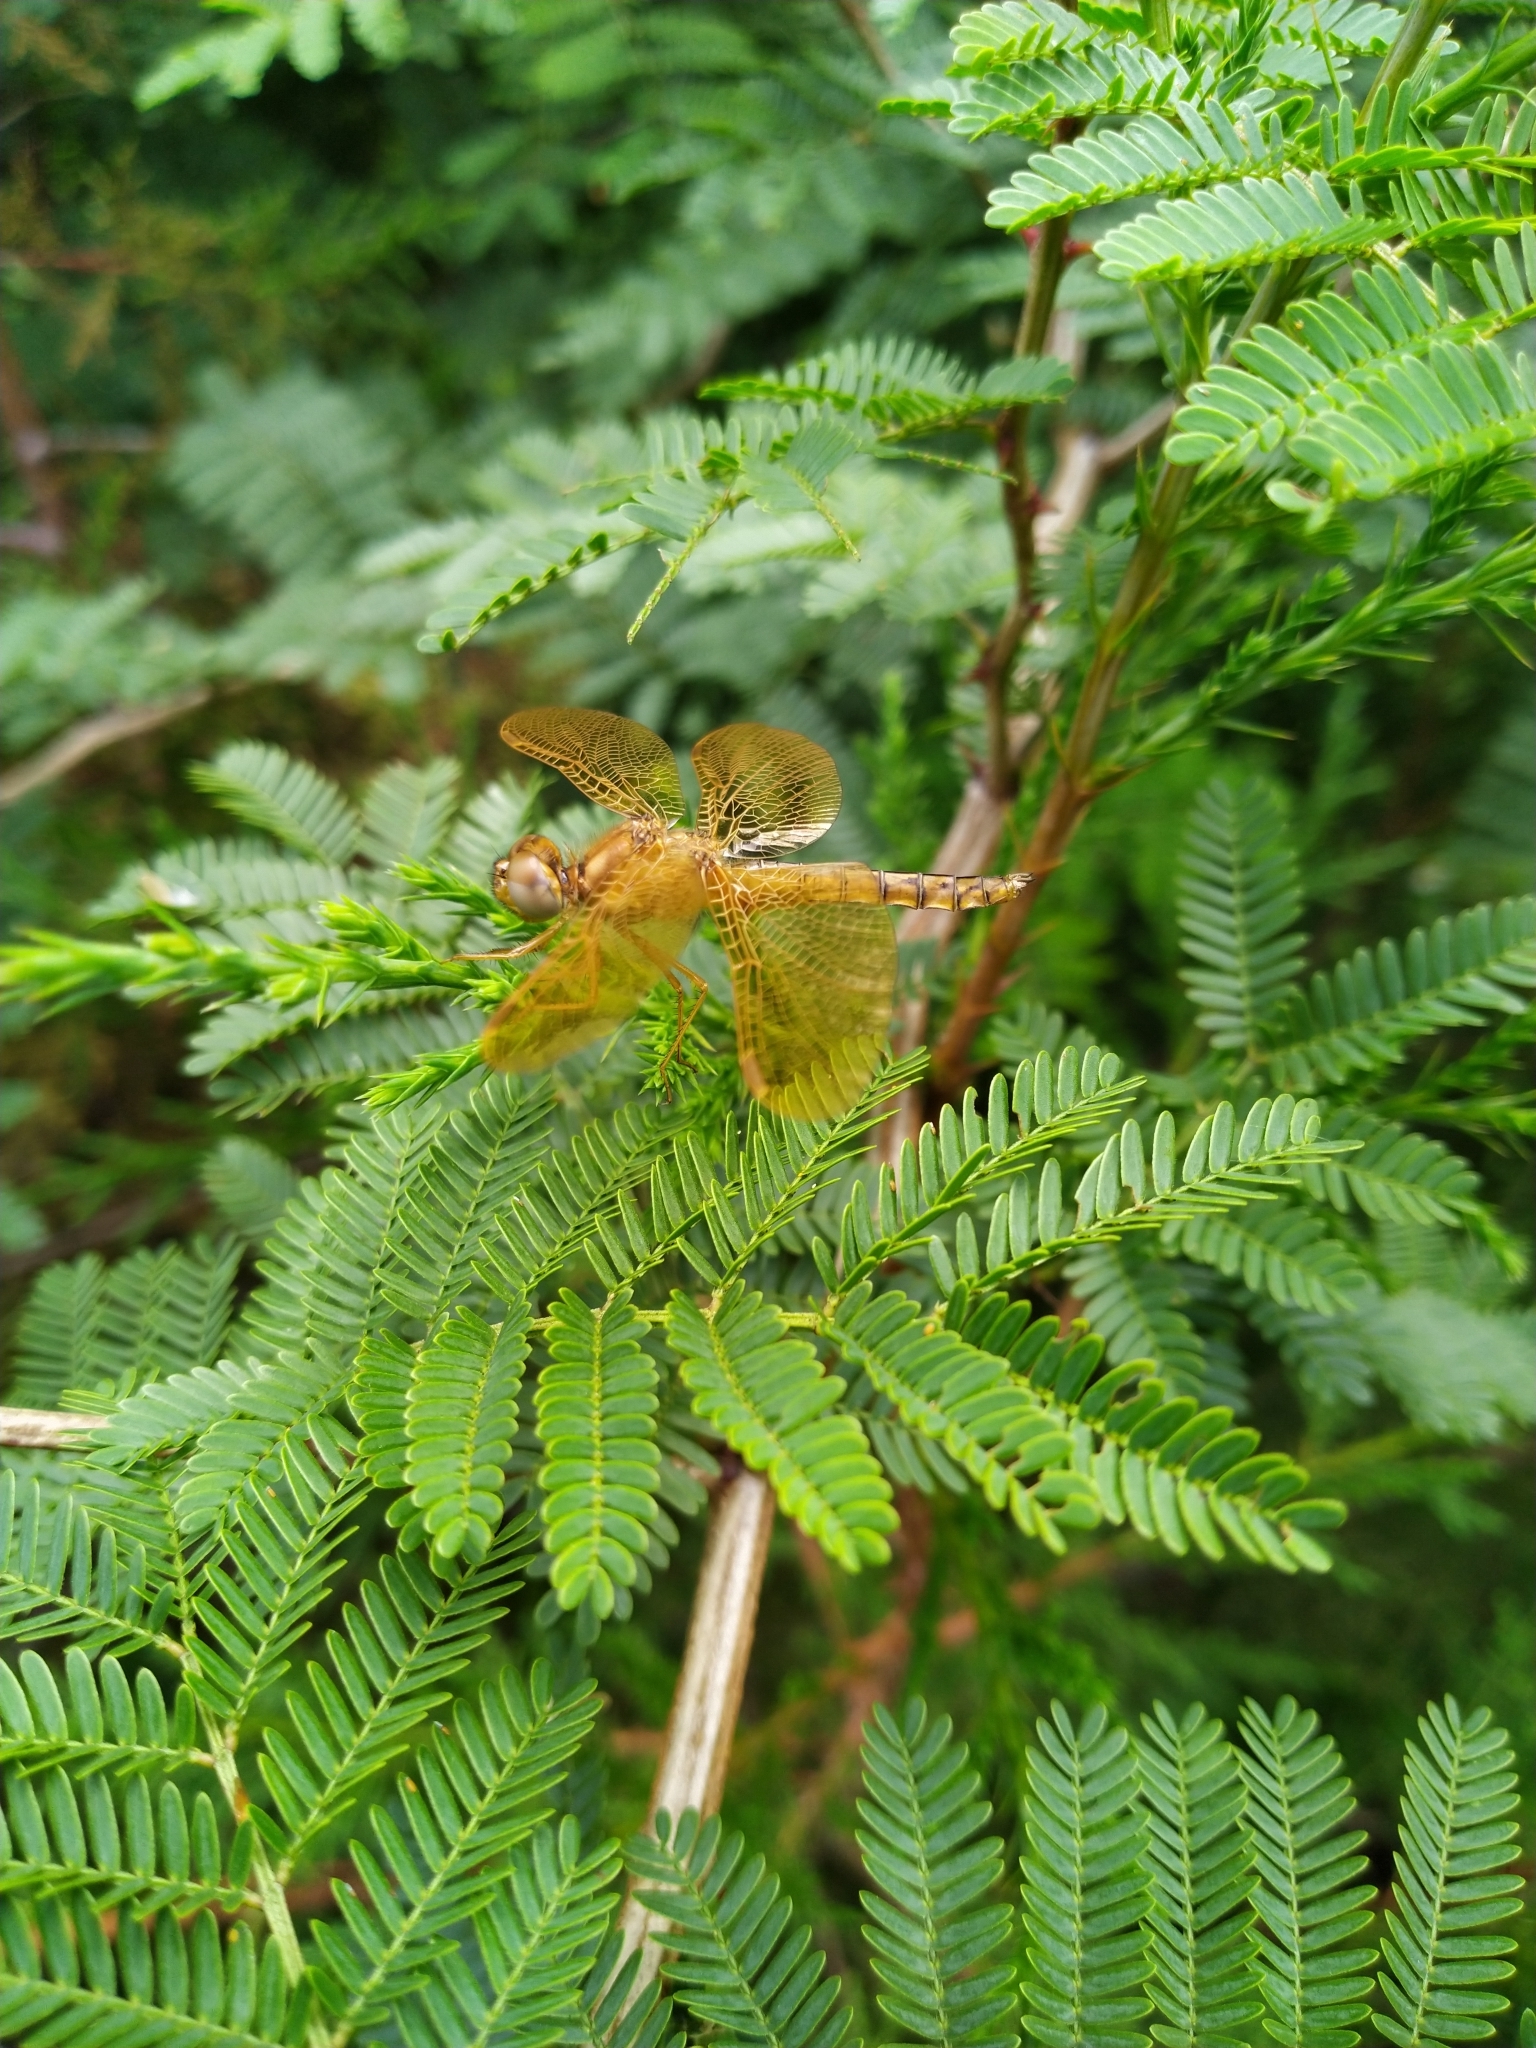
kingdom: Animalia
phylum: Arthropoda
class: Insecta
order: Odonata
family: Libellulidae
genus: Perithemis
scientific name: Perithemis intensa
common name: Mexican amberwing
